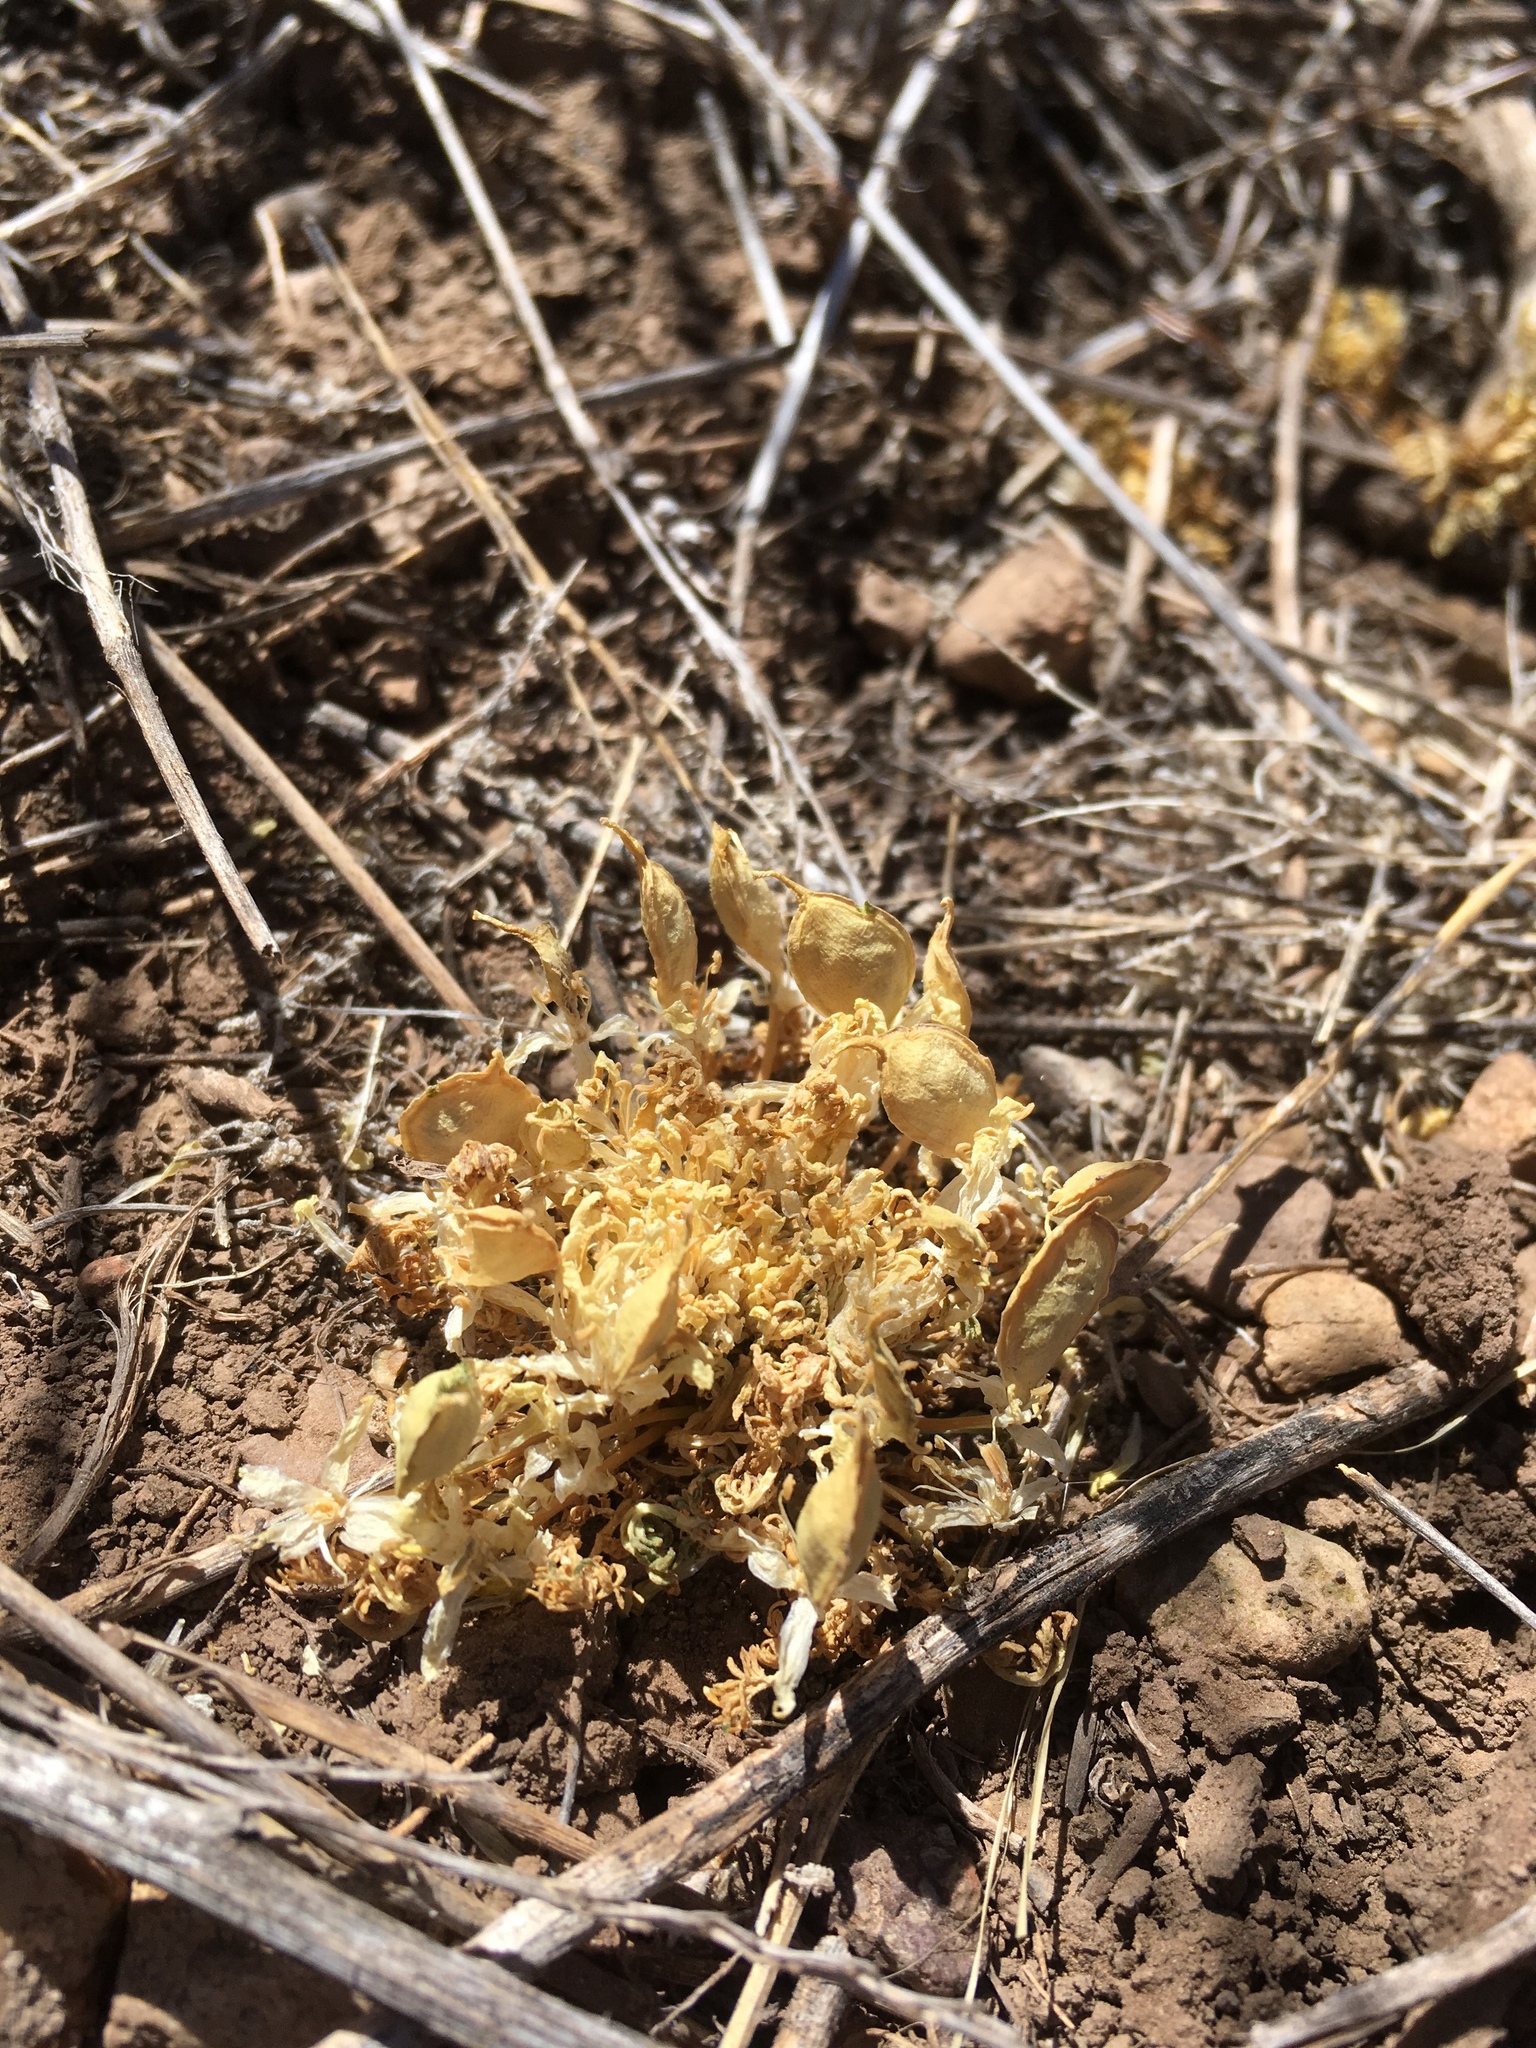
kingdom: Plantae
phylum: Tracheophyta
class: Magnoliopsida
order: Brassicales
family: Brassicaceae
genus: Selenia
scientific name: Selenia dissecta
